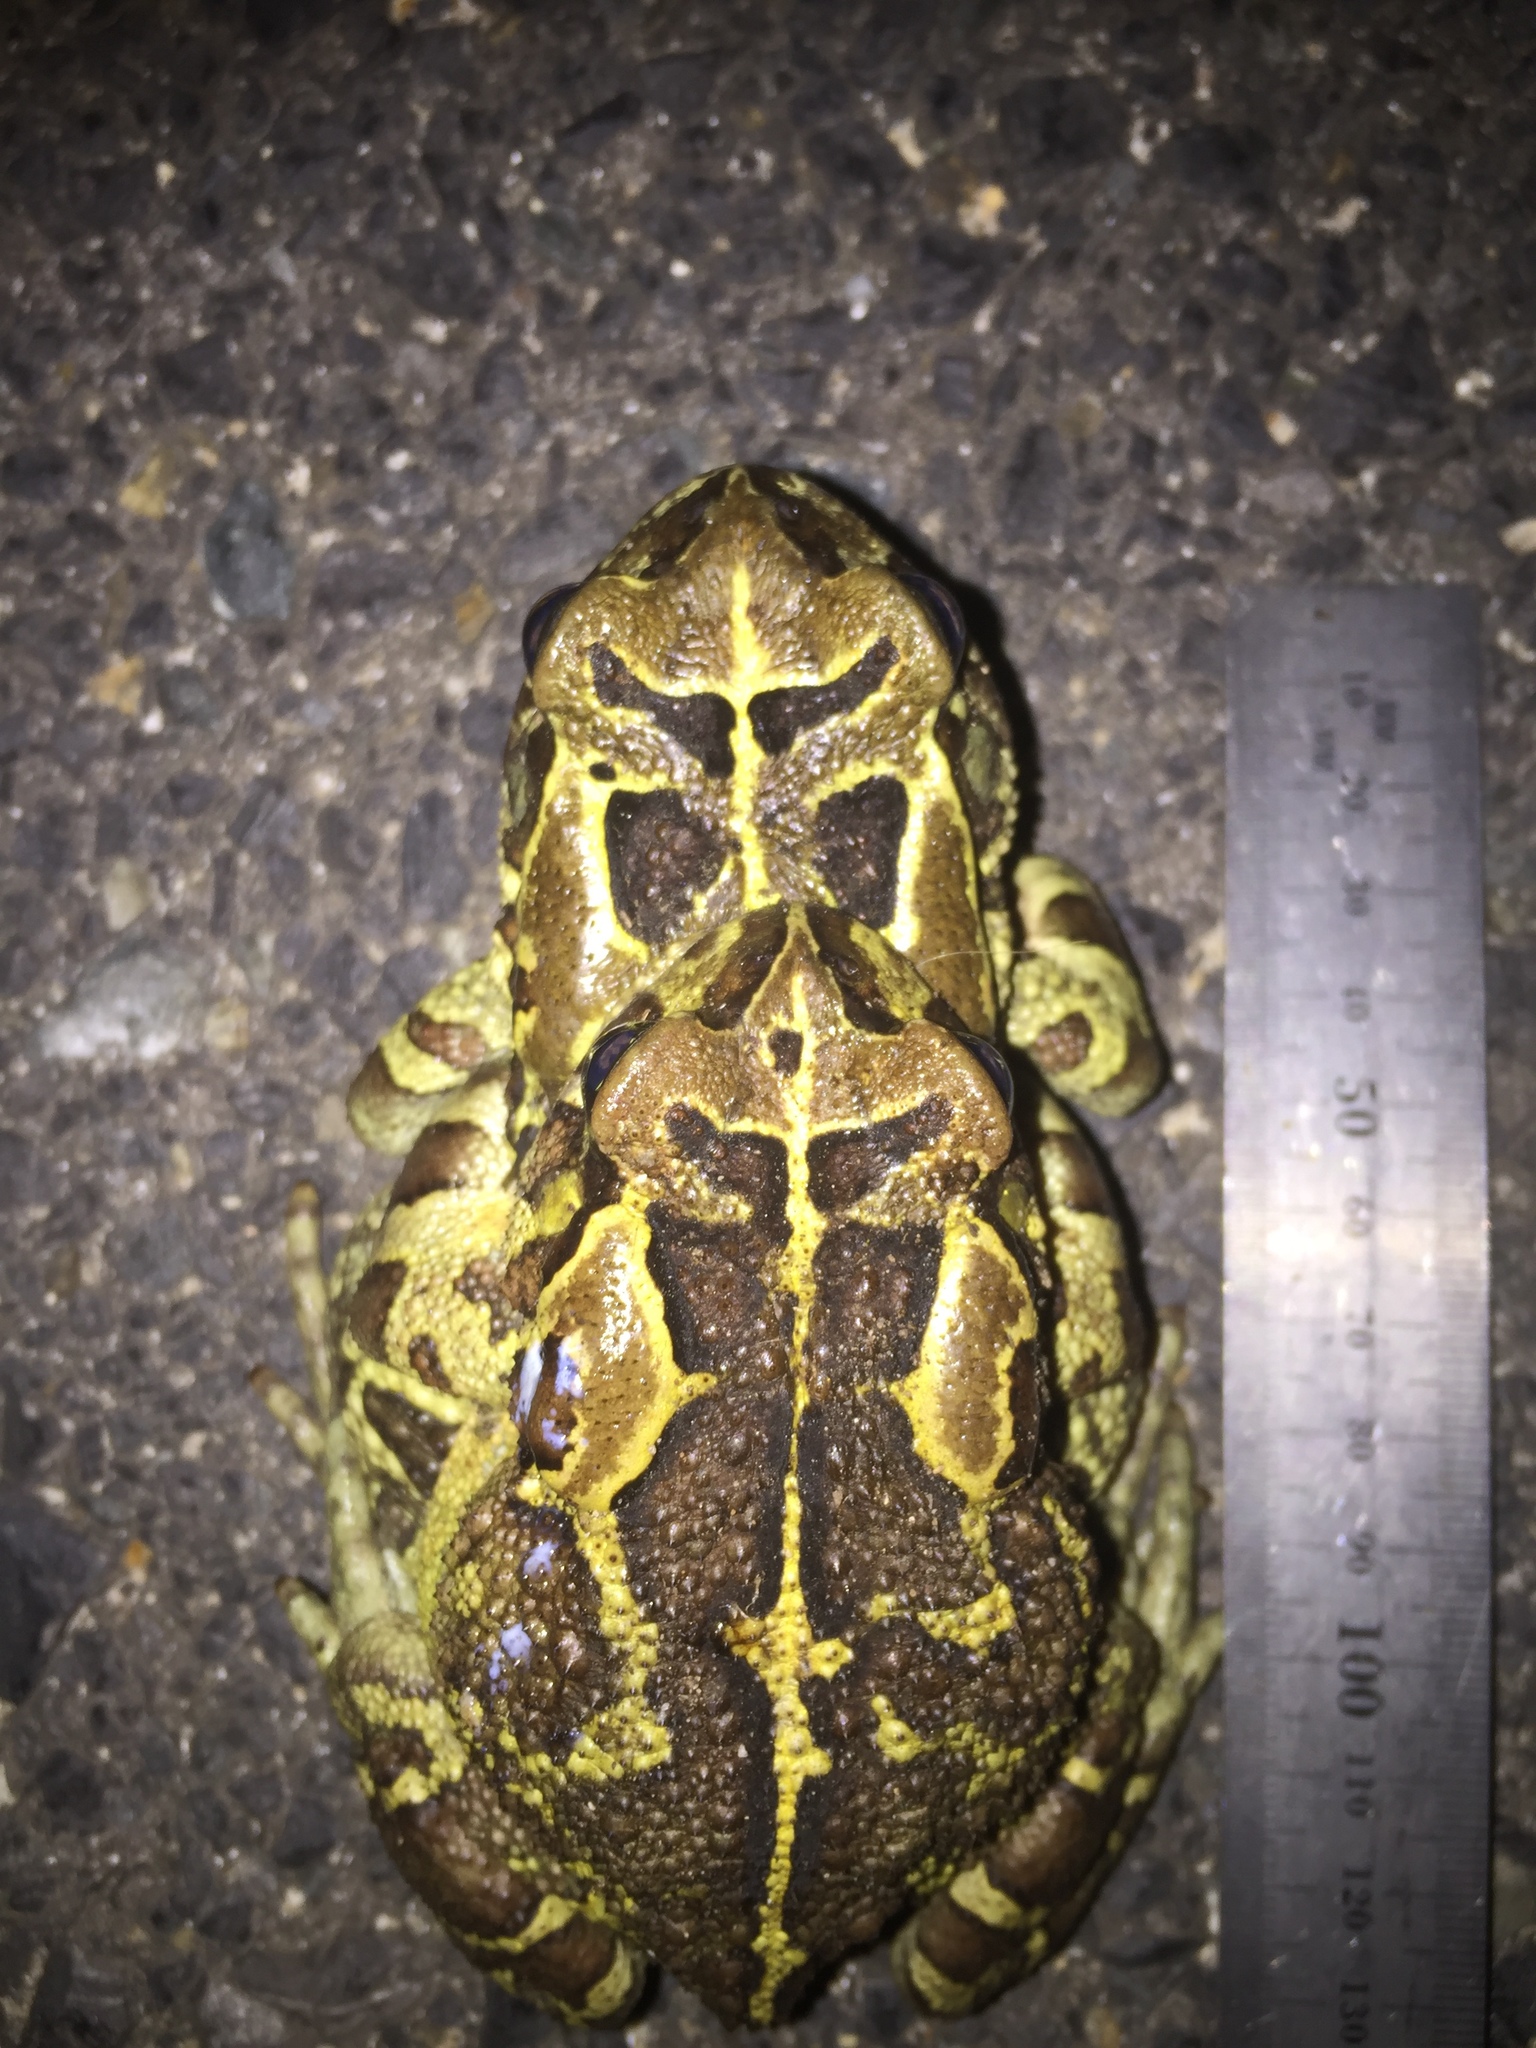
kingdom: Animalia
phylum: Chordata
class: Amphibia
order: Anura
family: Bufonidae
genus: Sclerophrys
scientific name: Sclerophrys pantherina
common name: Panther toad
